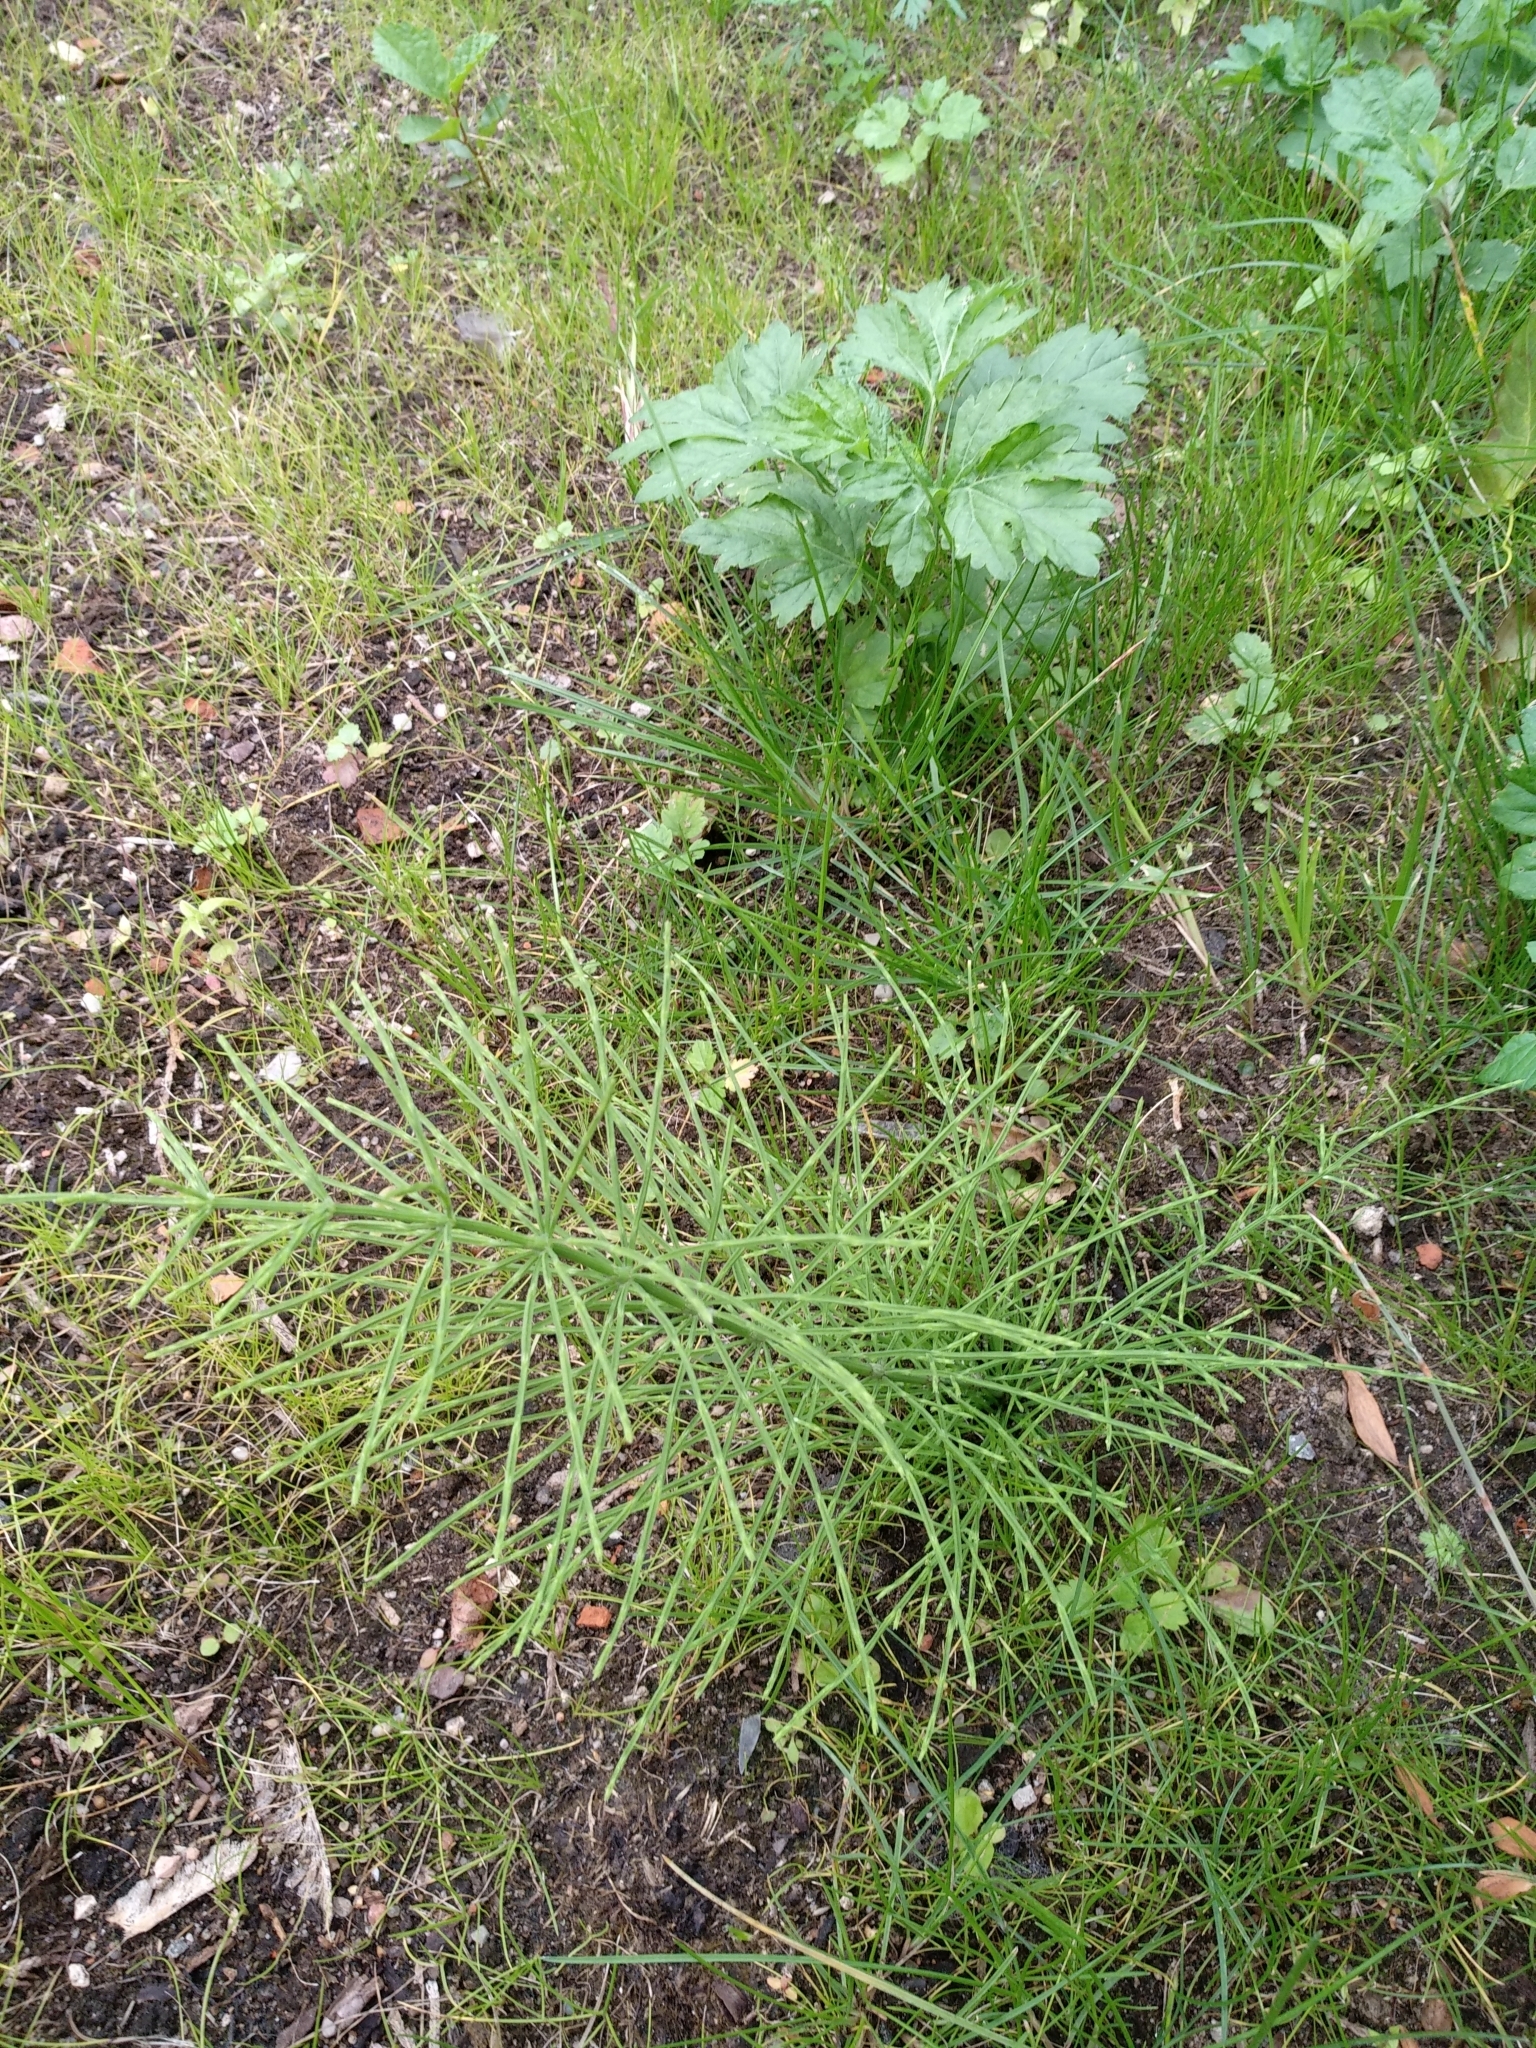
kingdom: Plantae
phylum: Tracheophyta
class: Polypodiopsida
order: Equisetales
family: Equisetaceae
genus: Equisetum
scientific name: Equisetum arvense
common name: Field horsetail
